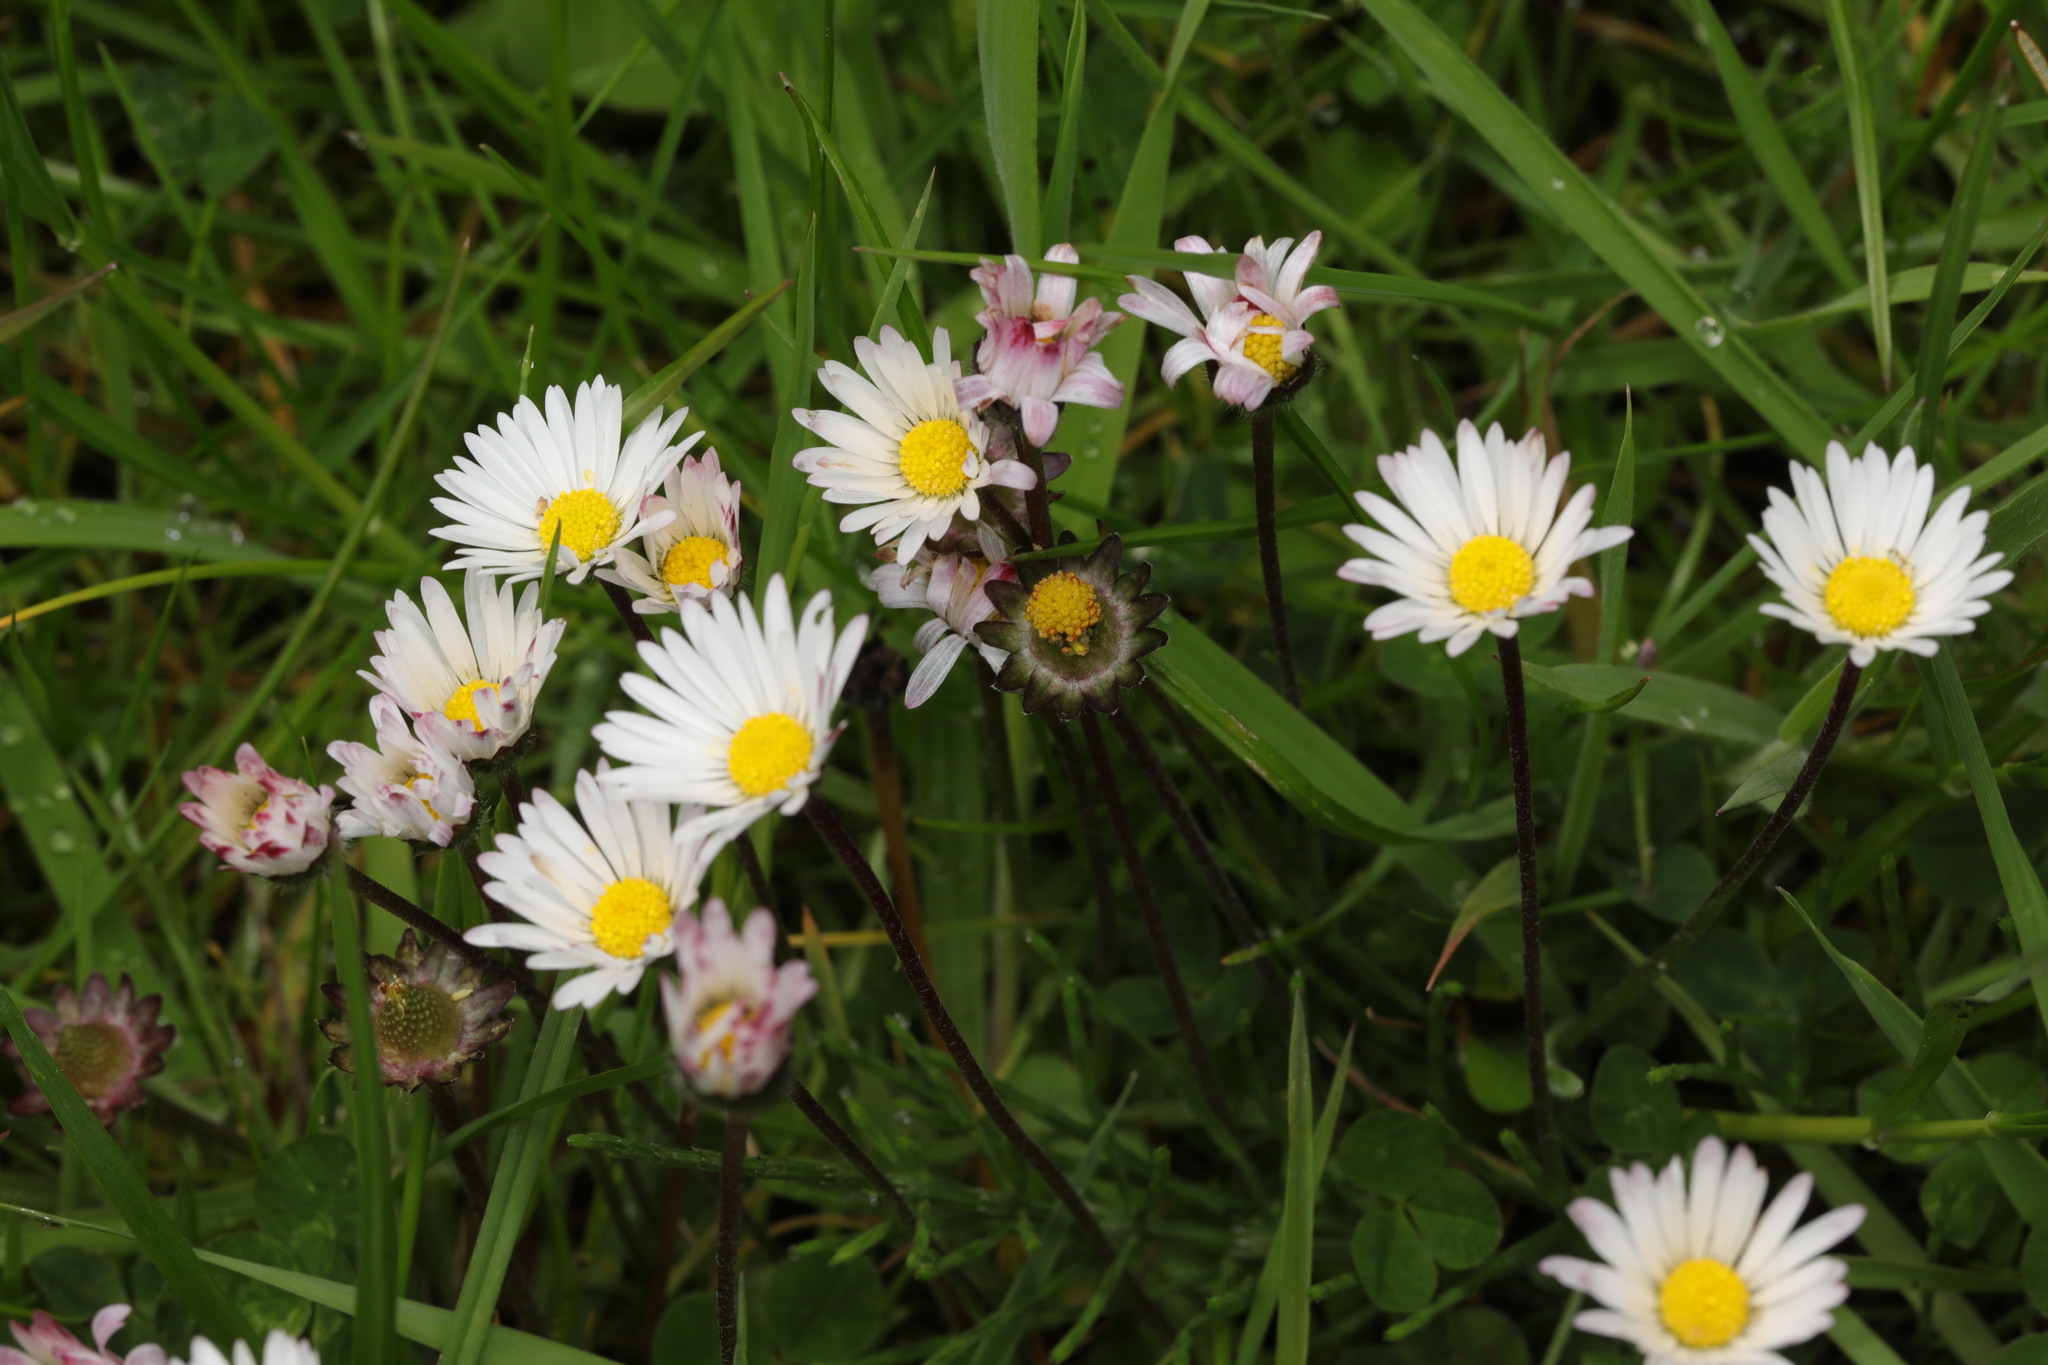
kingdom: Plantae
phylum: Tracheophyta
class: Magnoliopsida
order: Asterales
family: Asteraceae
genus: Bellis
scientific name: Bellis perennis
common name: Lawndaisy
